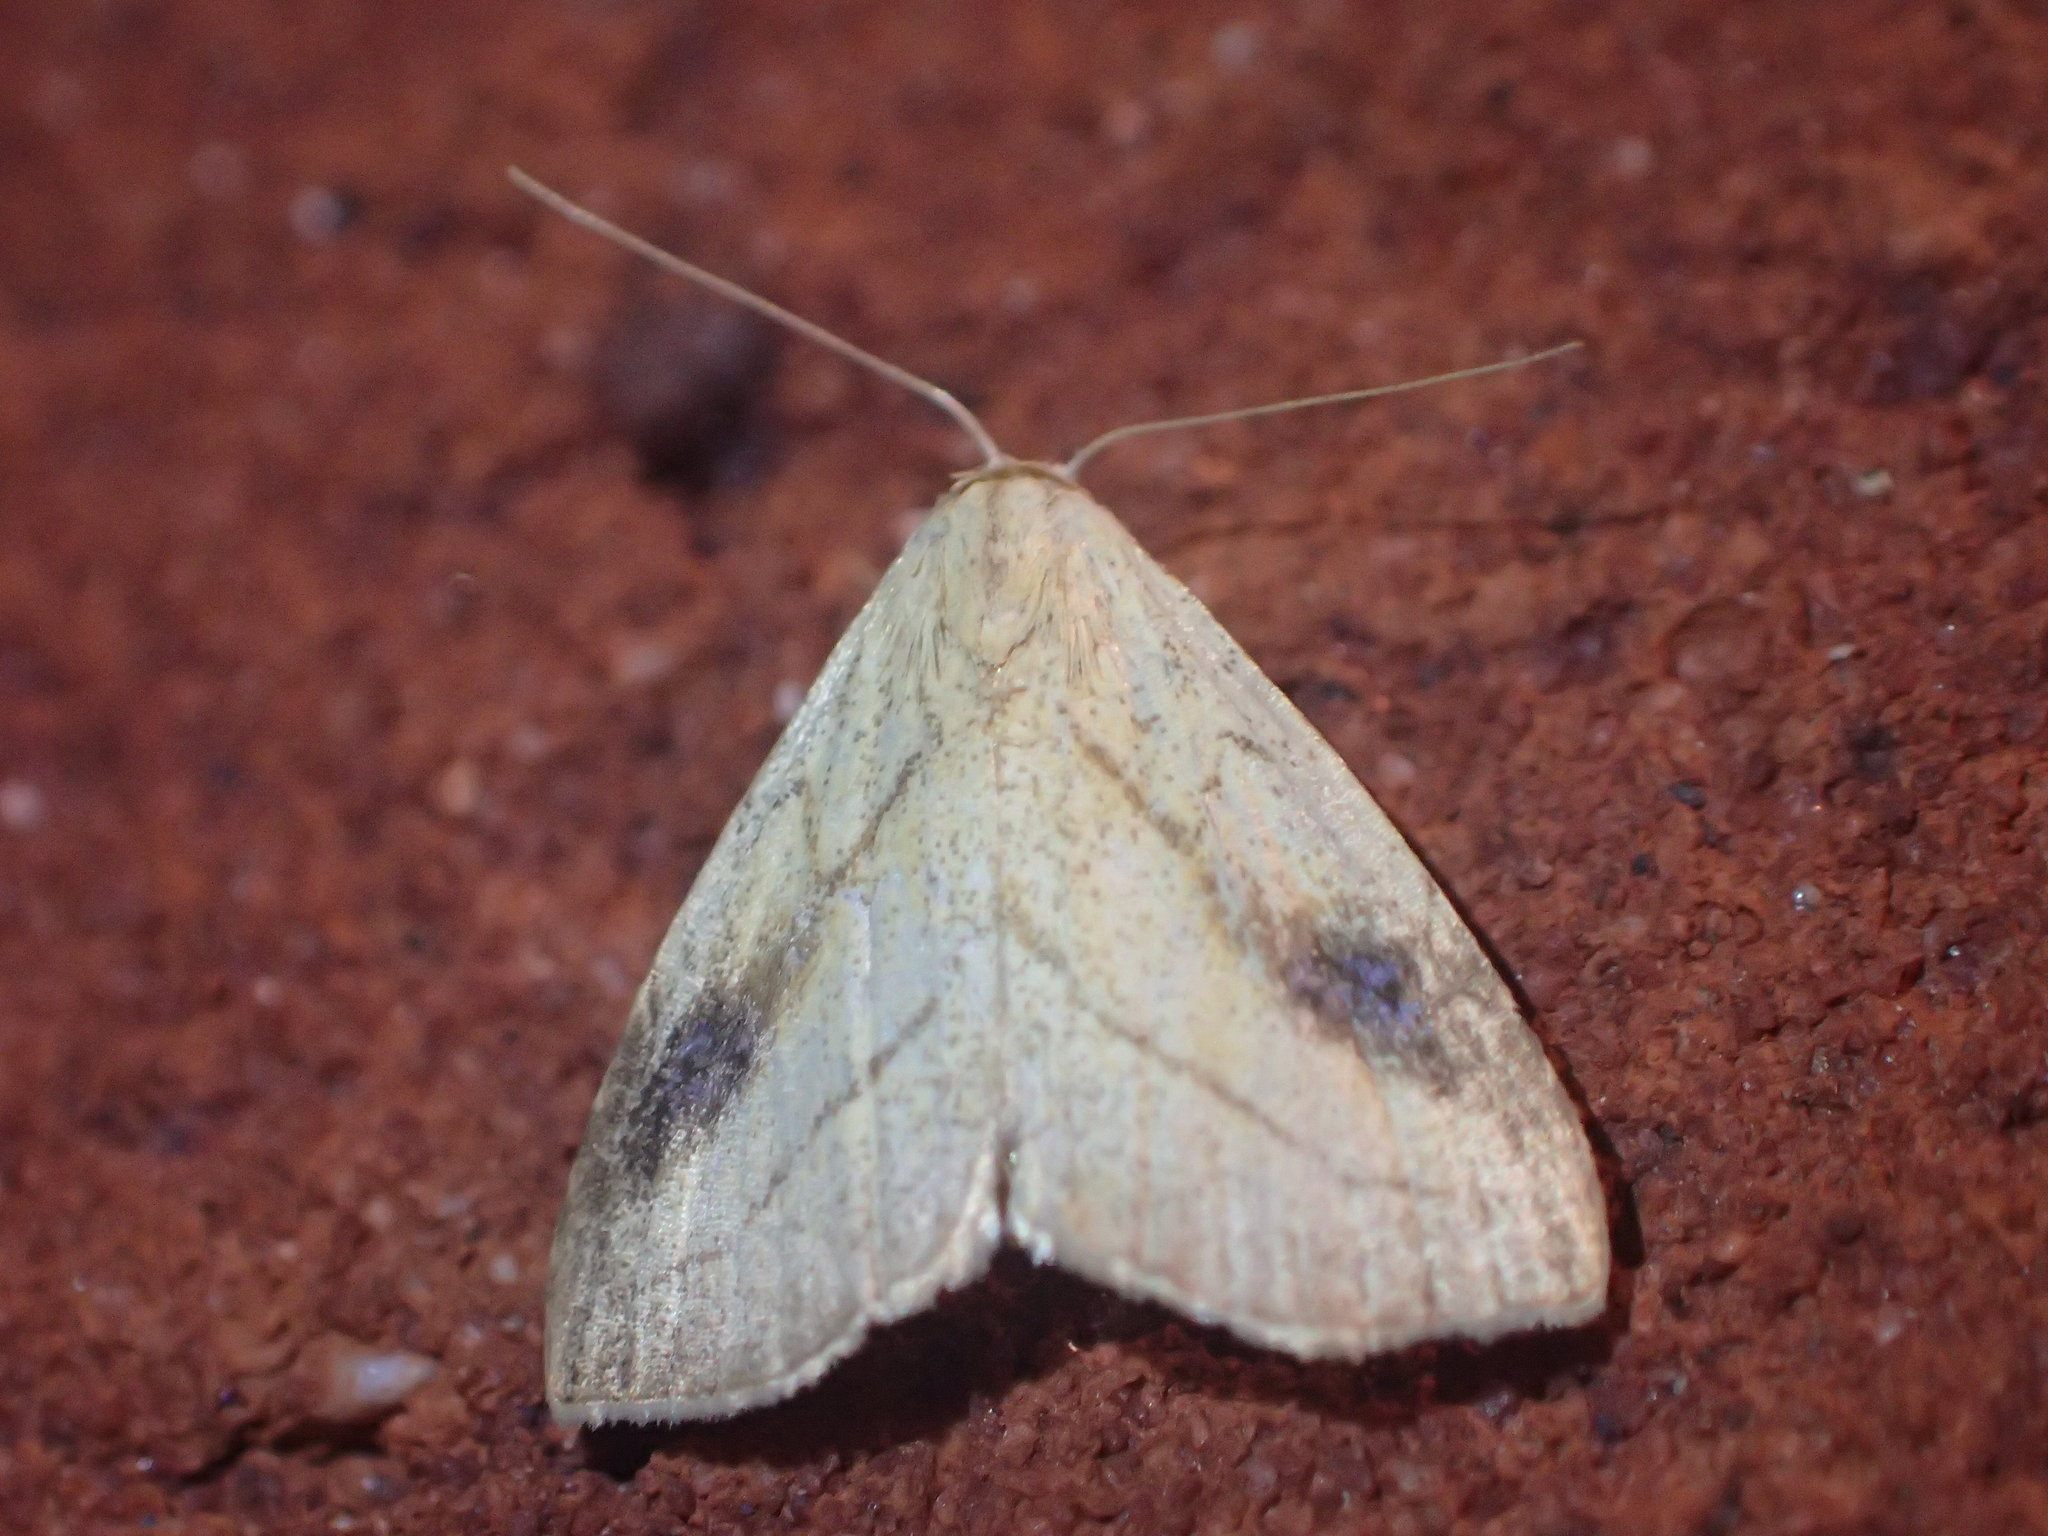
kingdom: Animalia
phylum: Arthropoda
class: Insecta
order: Lepidoptera
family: Erebidae
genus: Rivula
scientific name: Rivula propinqualis
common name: Spotted grass moth
